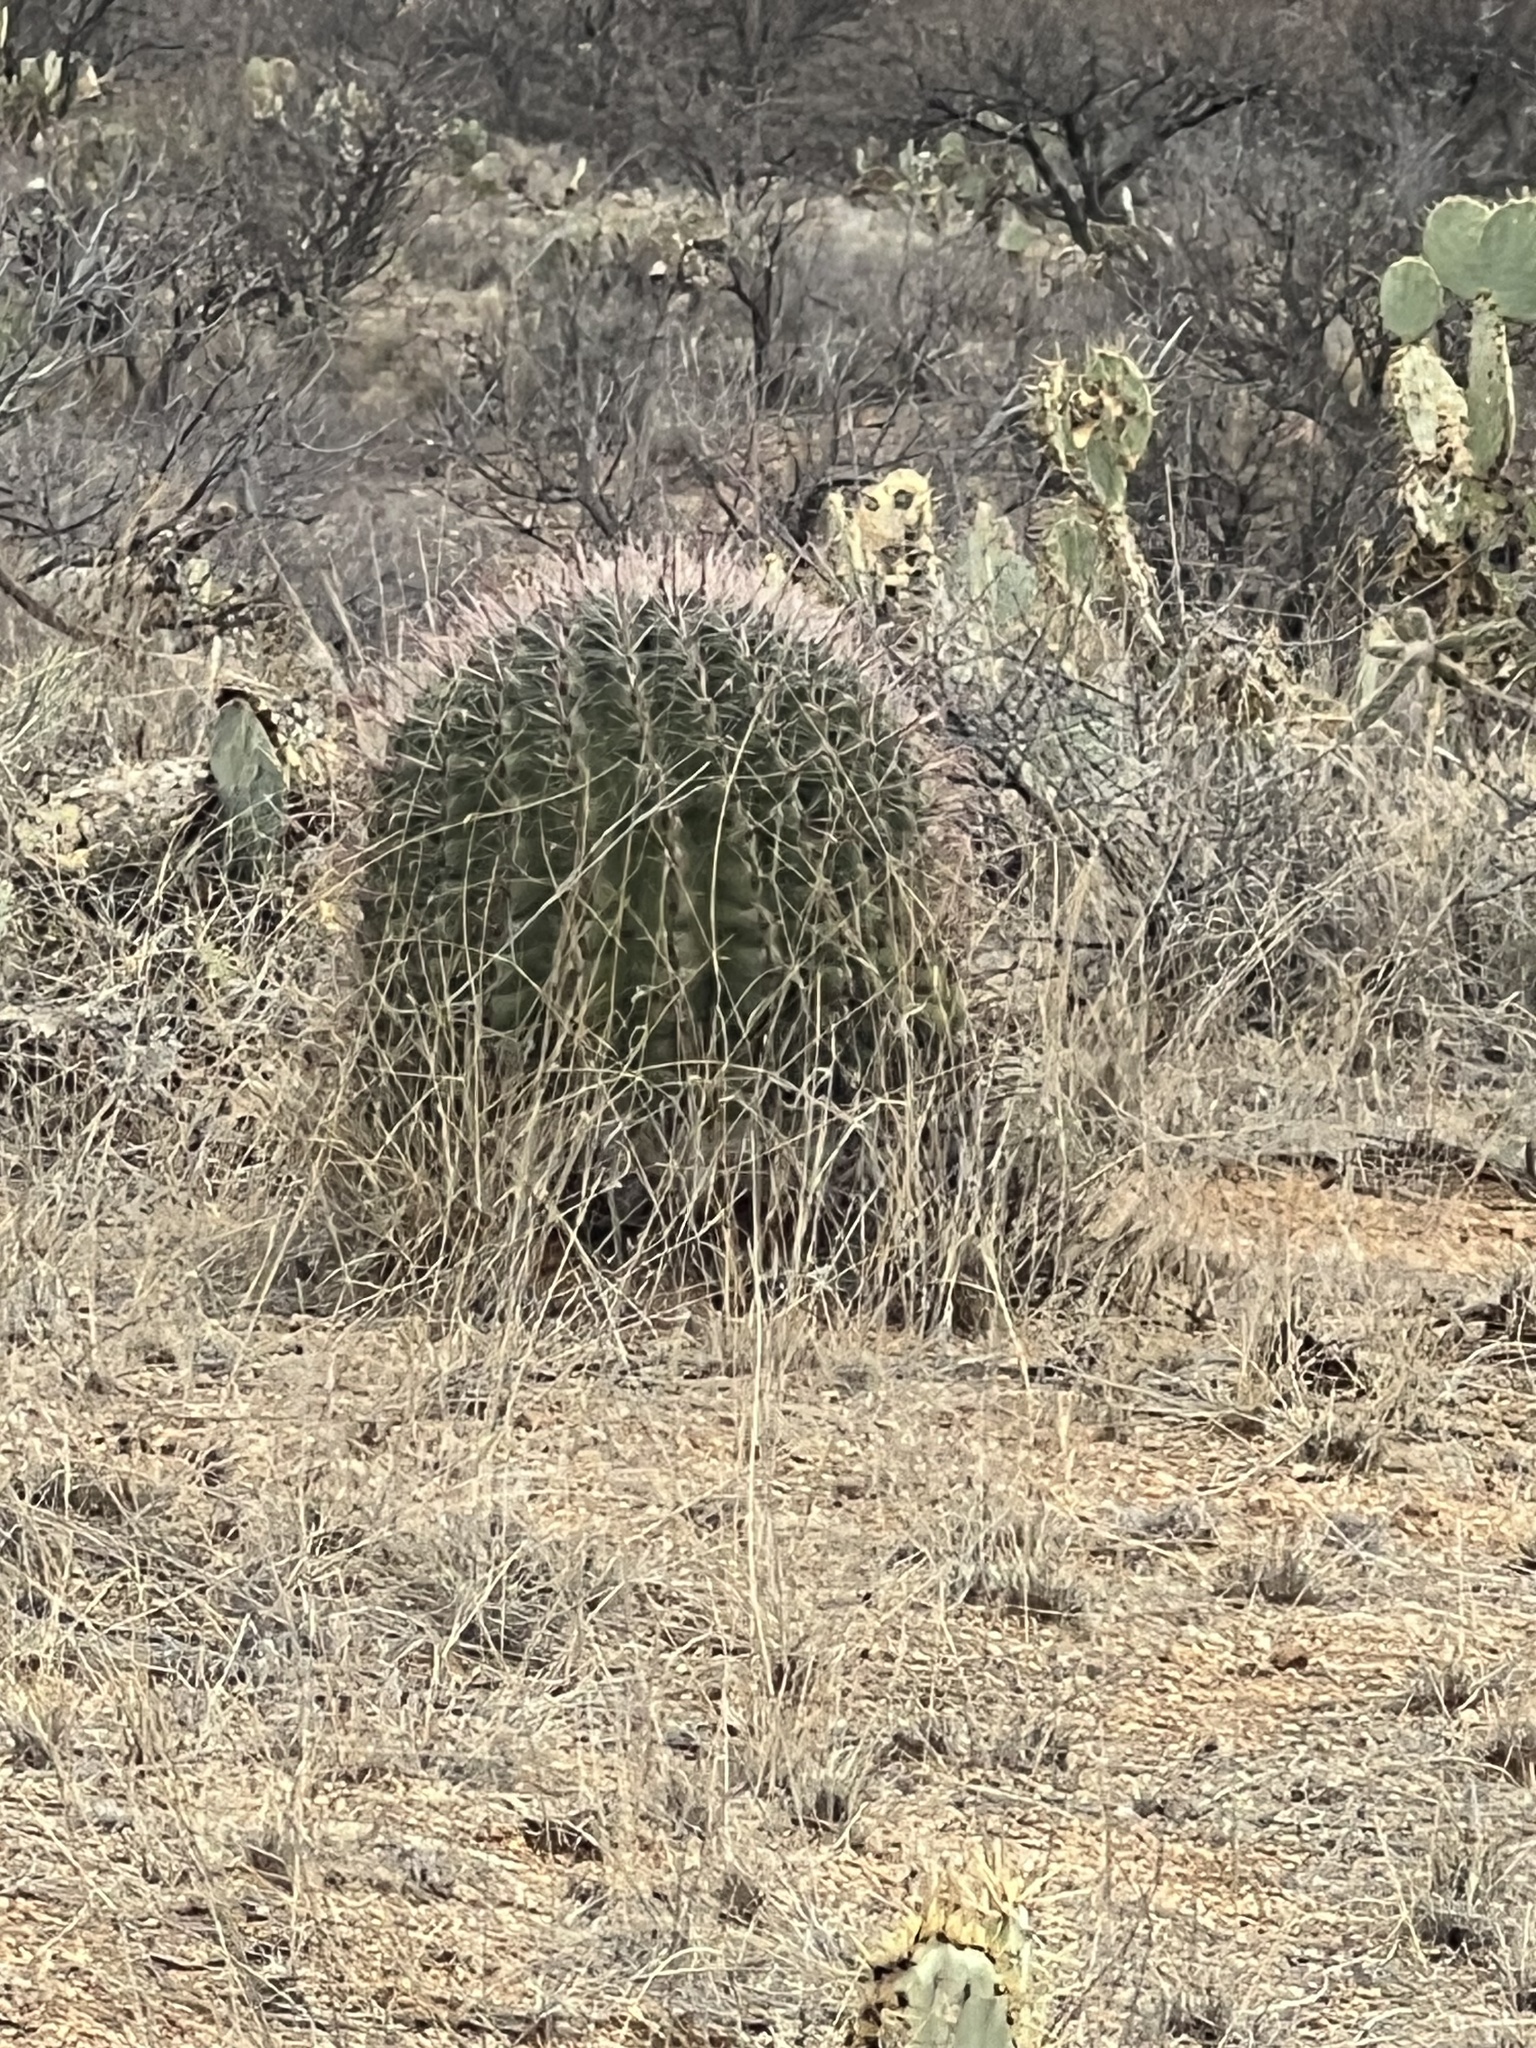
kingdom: Plantae
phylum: Tracheophyta
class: Magnoliopsida
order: Caryophyllales
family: Cactaceae
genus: Ferocactus
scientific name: Ferocactus wislizeni
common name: Candy barrel cactus
